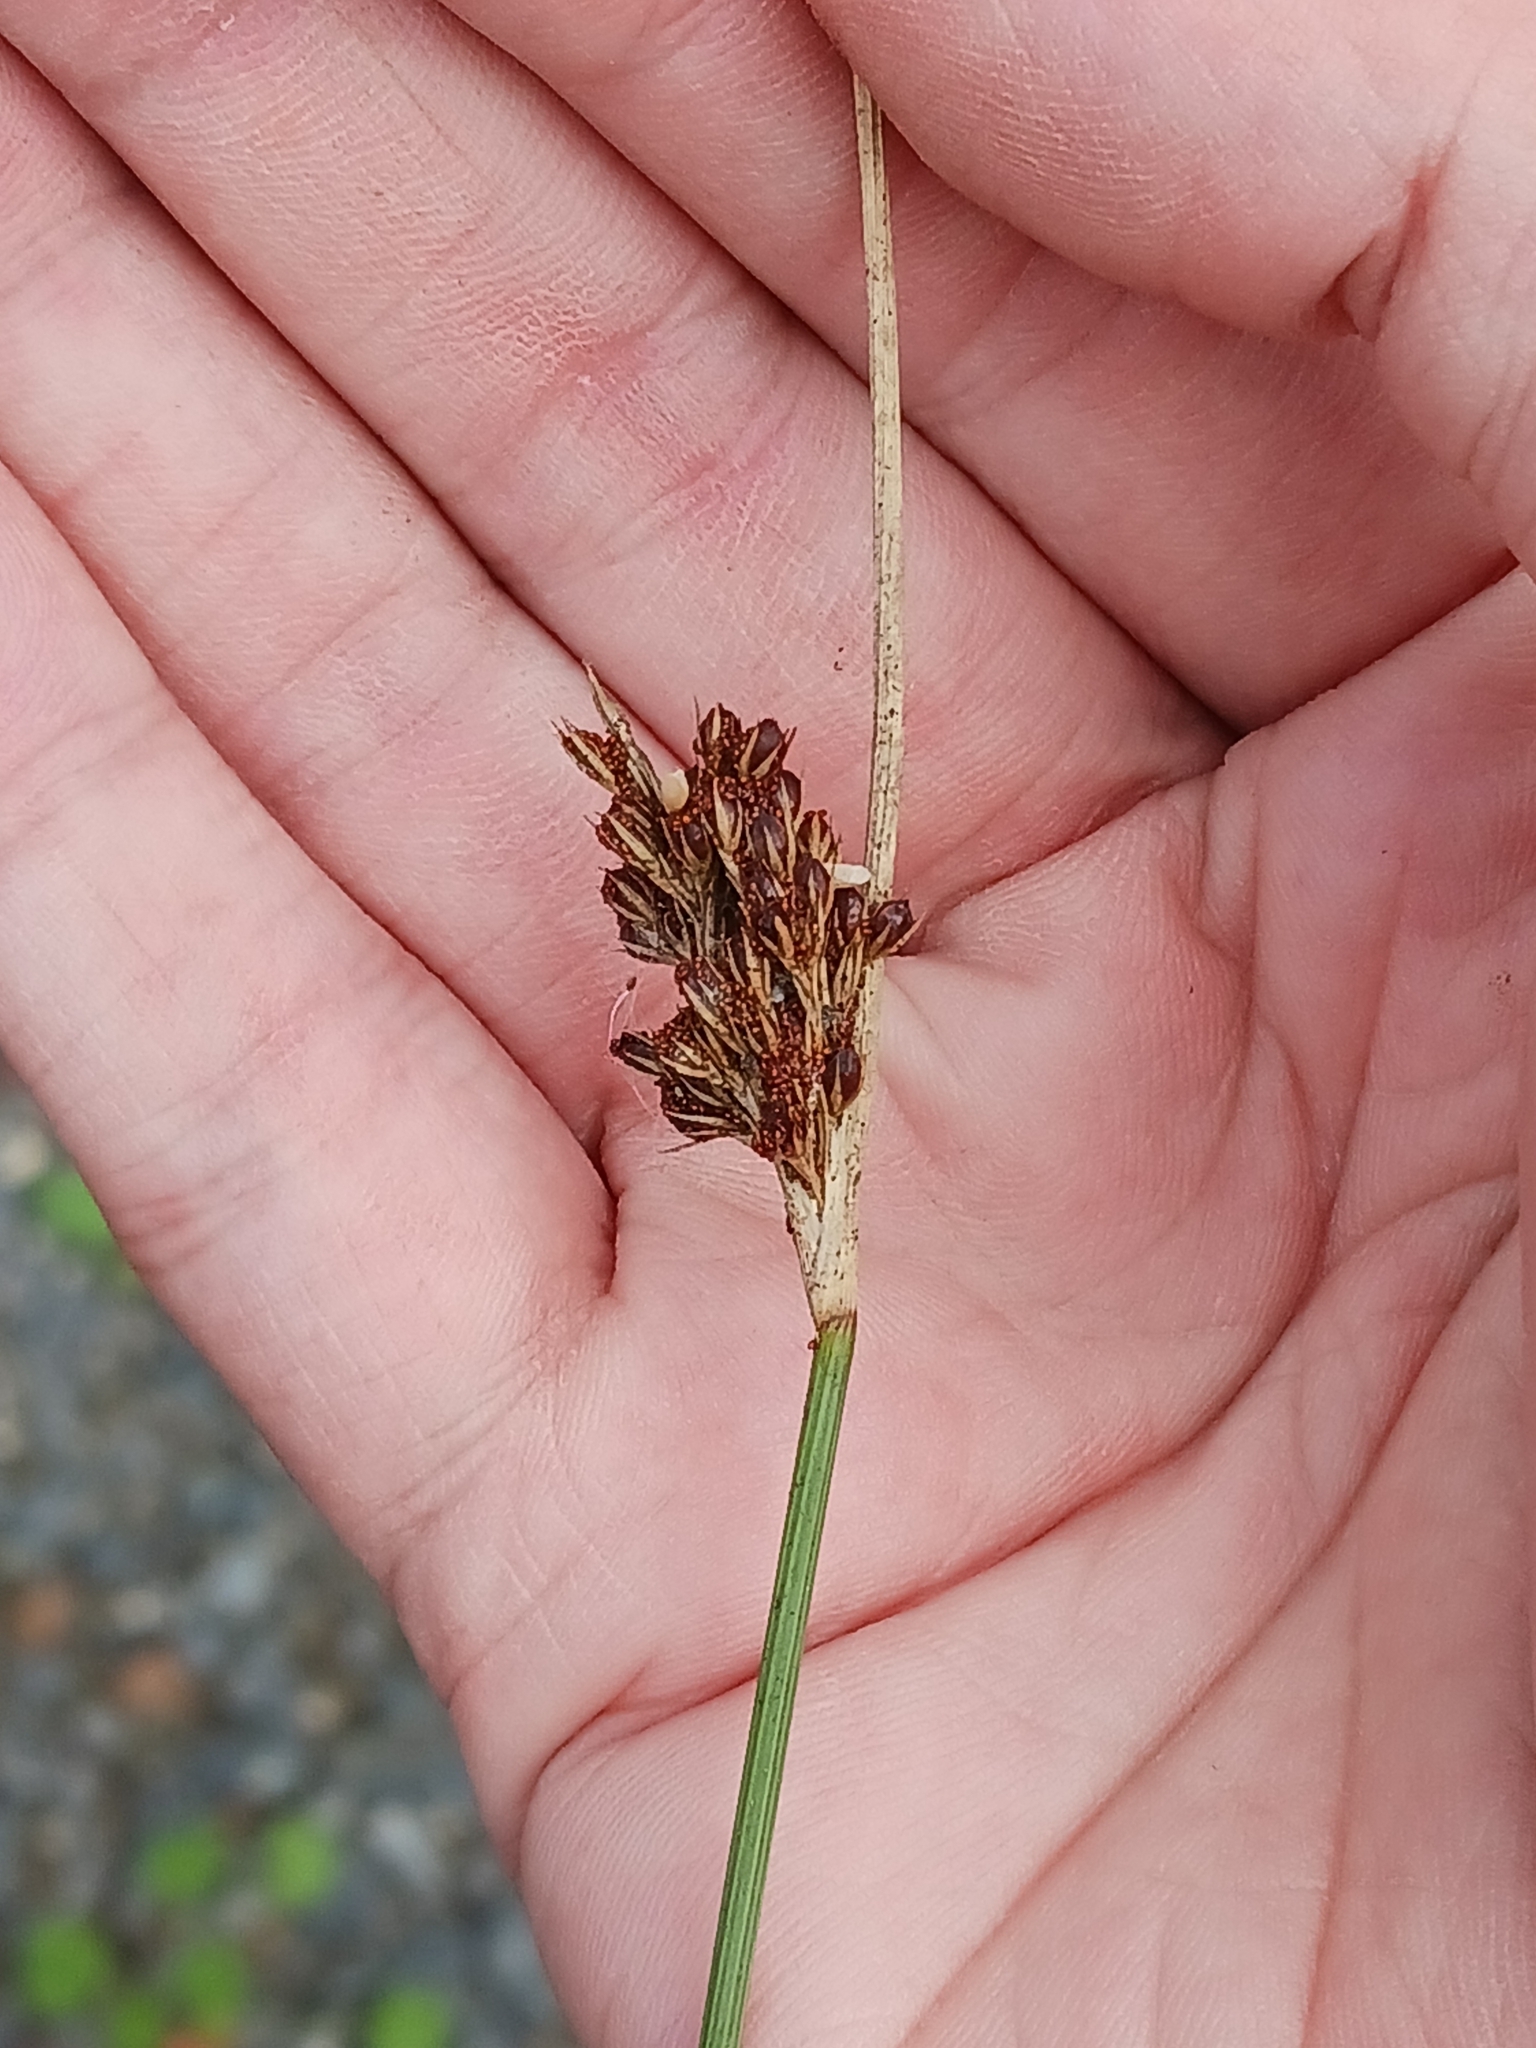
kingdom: Plantae
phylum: Tracheophyta
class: Liliopsida
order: Poales
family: Juncaceae
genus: Juncus
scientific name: Juncus inflexus
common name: Hard rush
